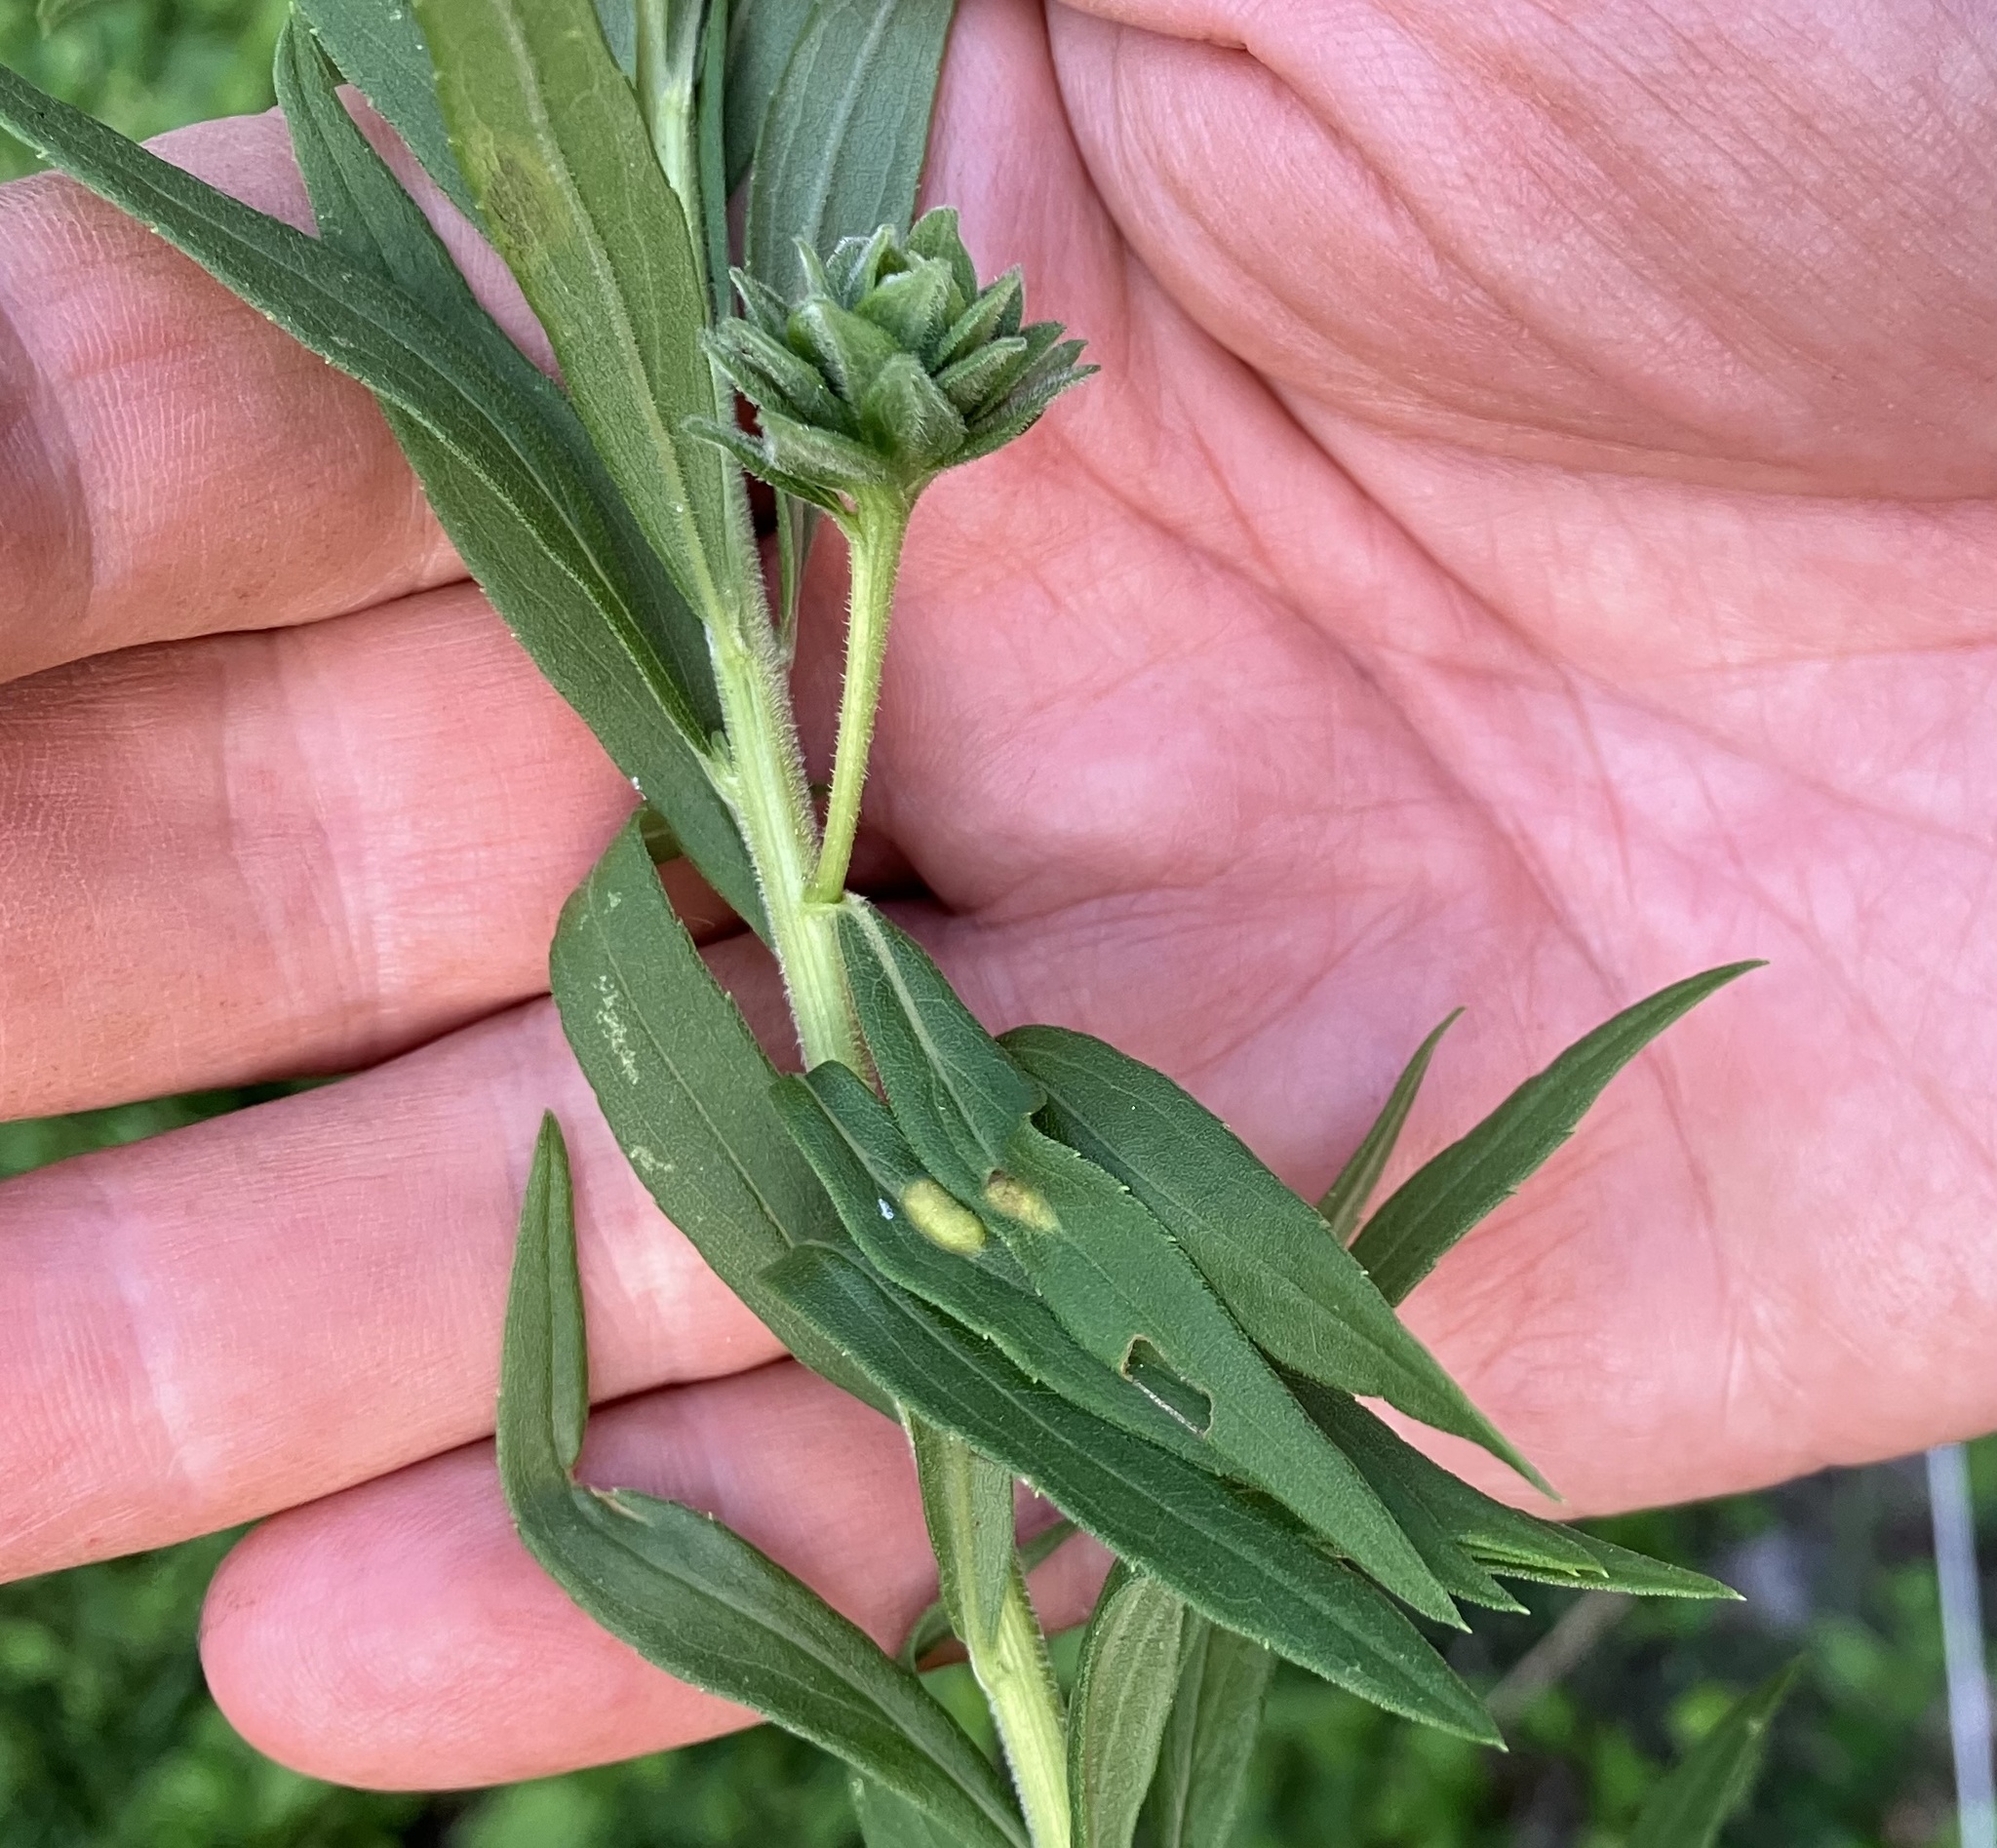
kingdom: Animalia
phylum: Arthropoda
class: Insecta
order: Diptera
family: Cecidomyiidae
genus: Asphondylia
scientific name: Asphondylia solidaginis
